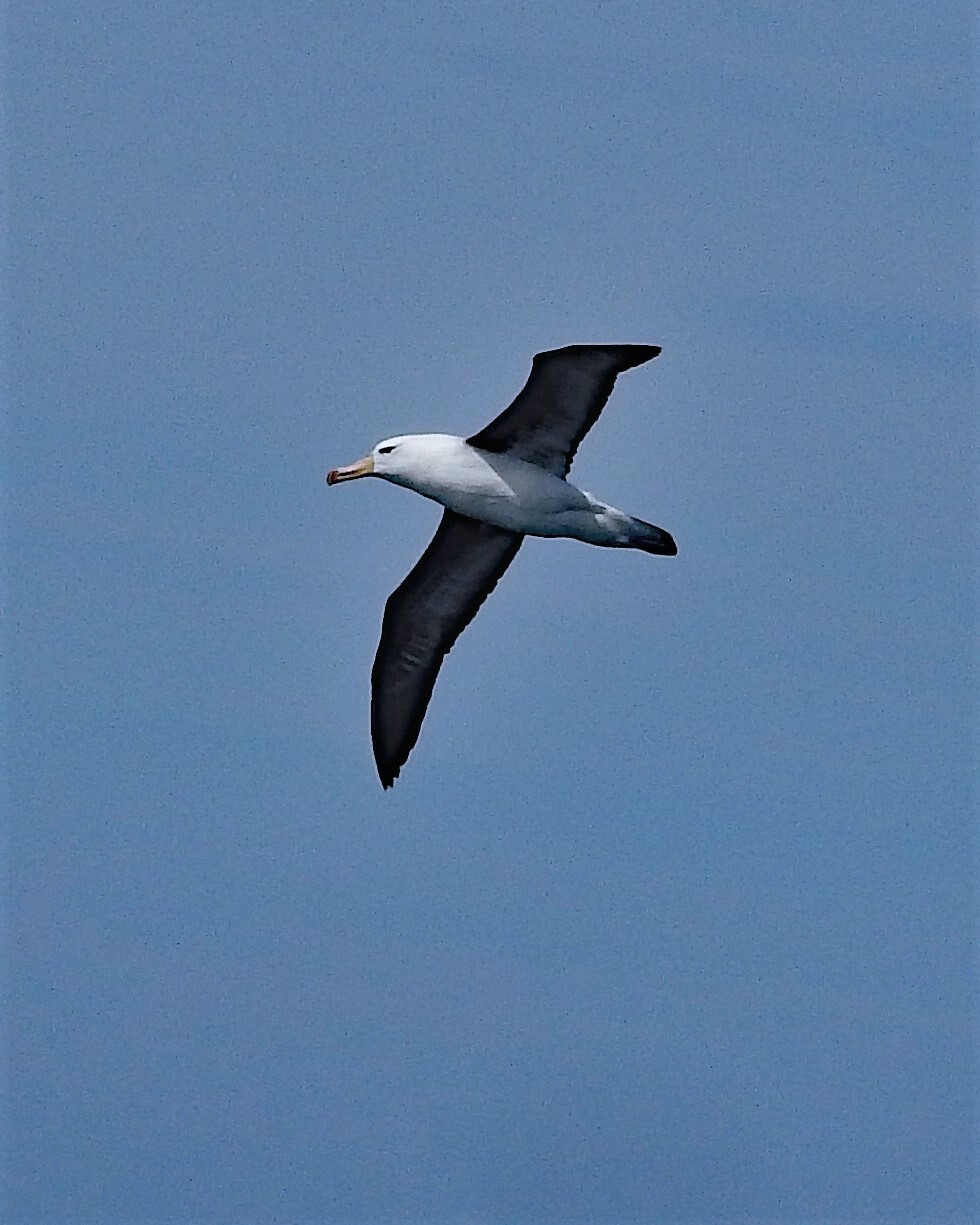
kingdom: Animalia
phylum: Chordata
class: Aves
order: Procellariiformes
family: Diomedeidae
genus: Thalassarche
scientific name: Thalassarche melanophris
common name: Black-browed albatross
